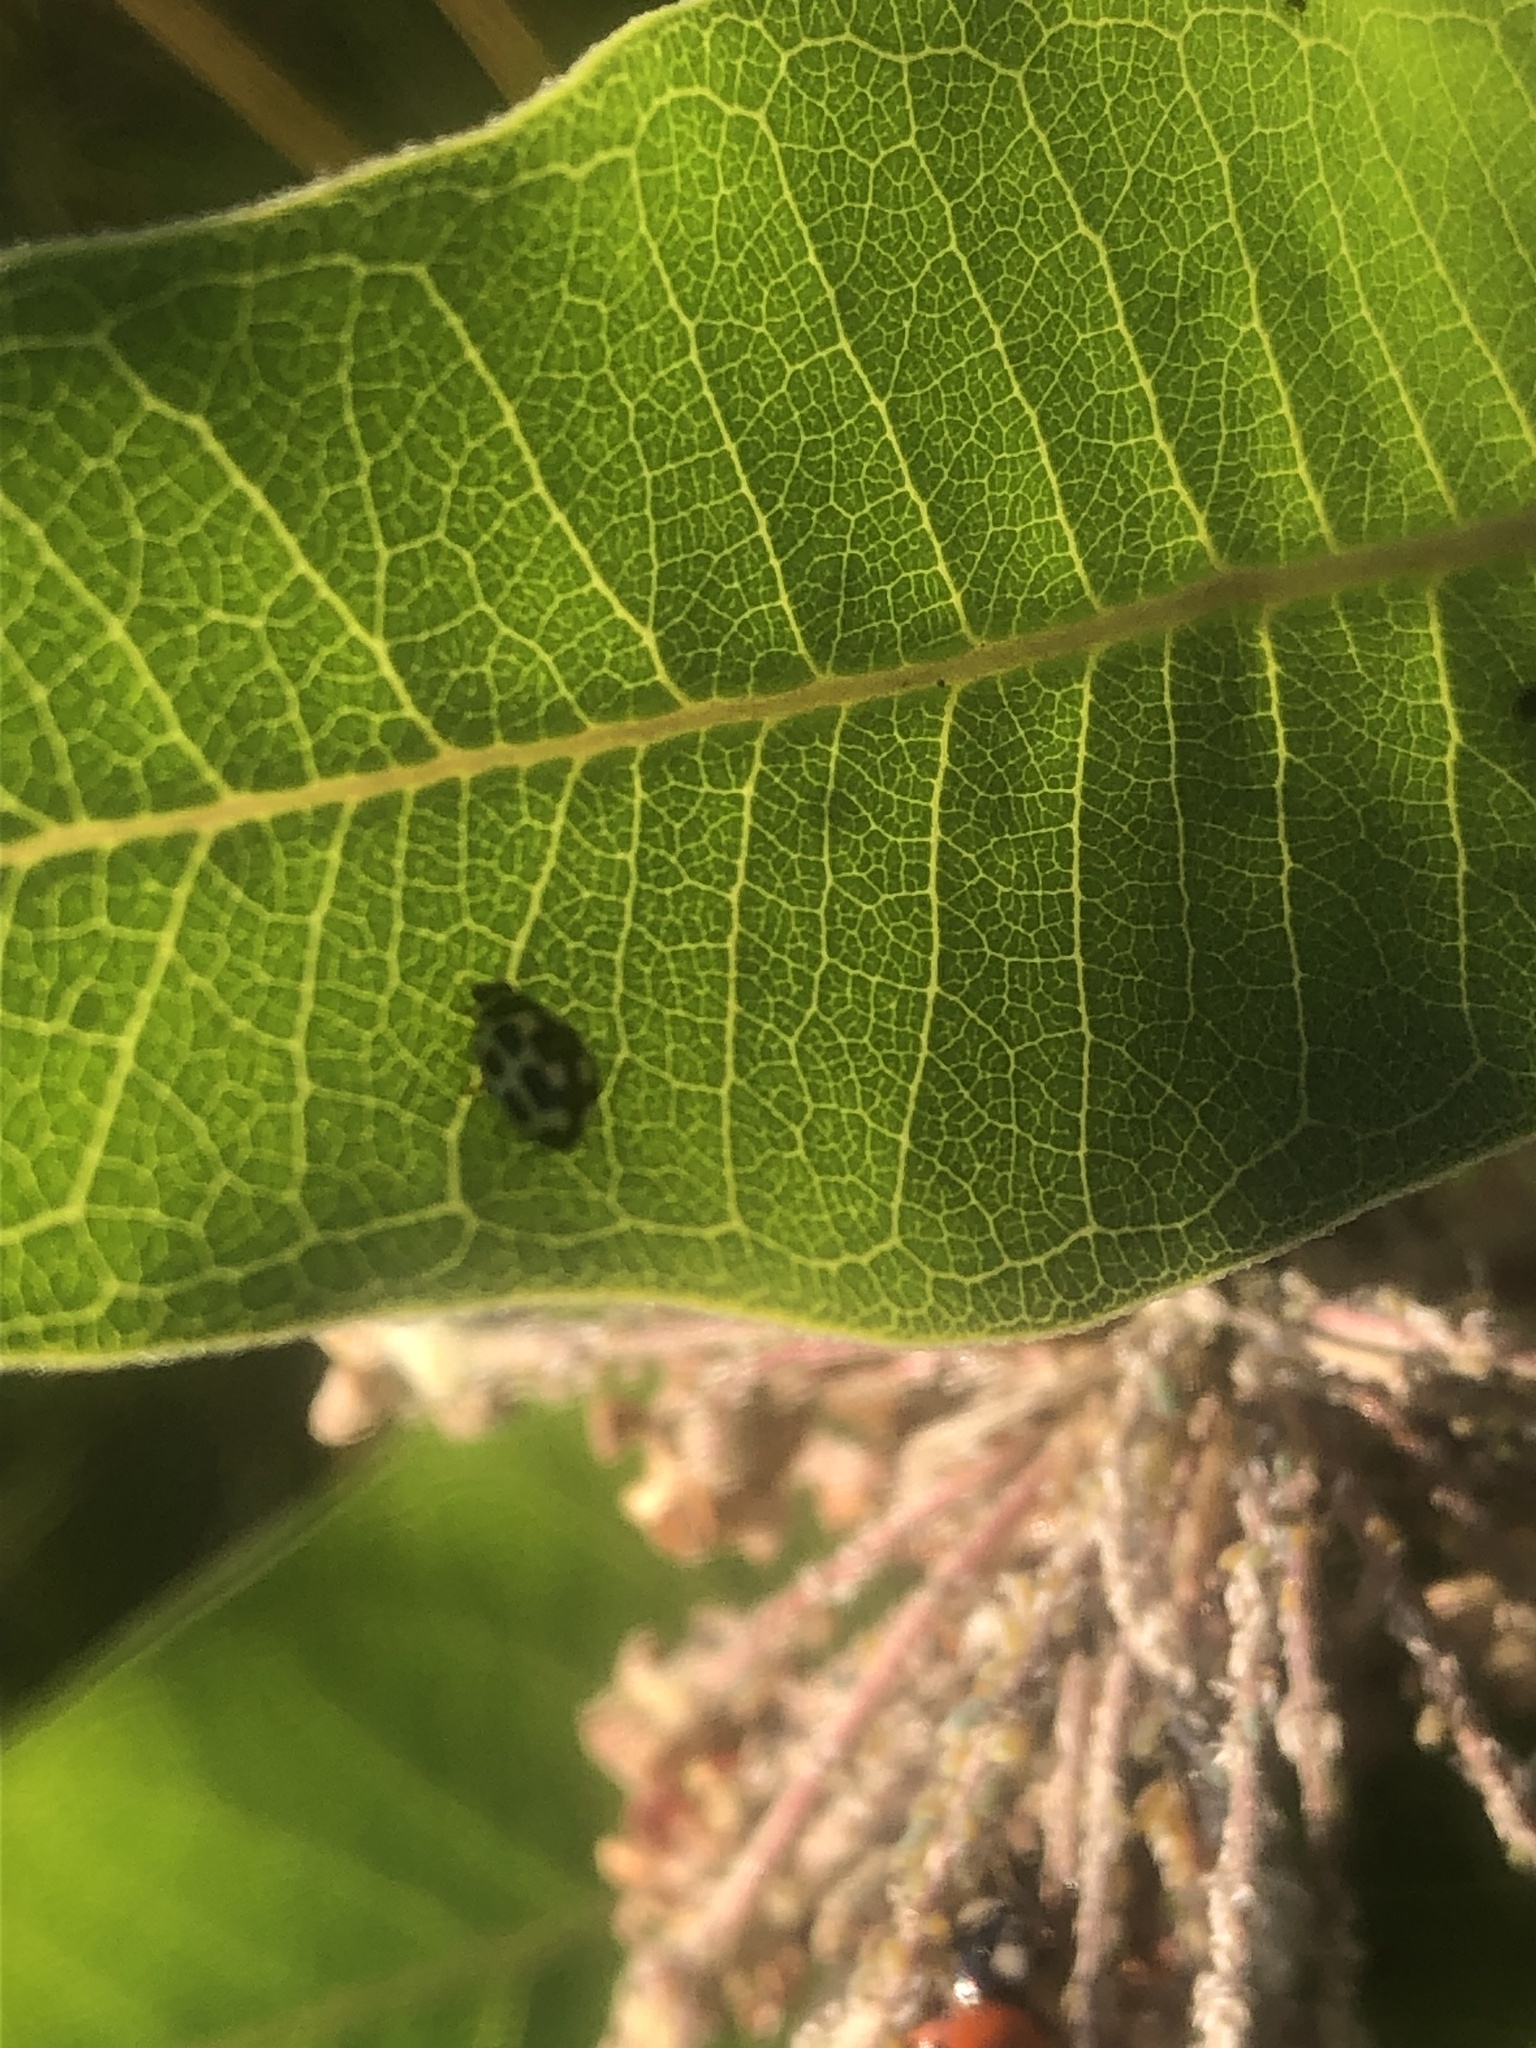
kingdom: Animalia
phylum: Arthropoda
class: Insecta
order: Coleoptera
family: Coccinellidae
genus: Propylaea
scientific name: Propylaea quatuordecimpunctata
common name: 14-spotted ladybird beetle
